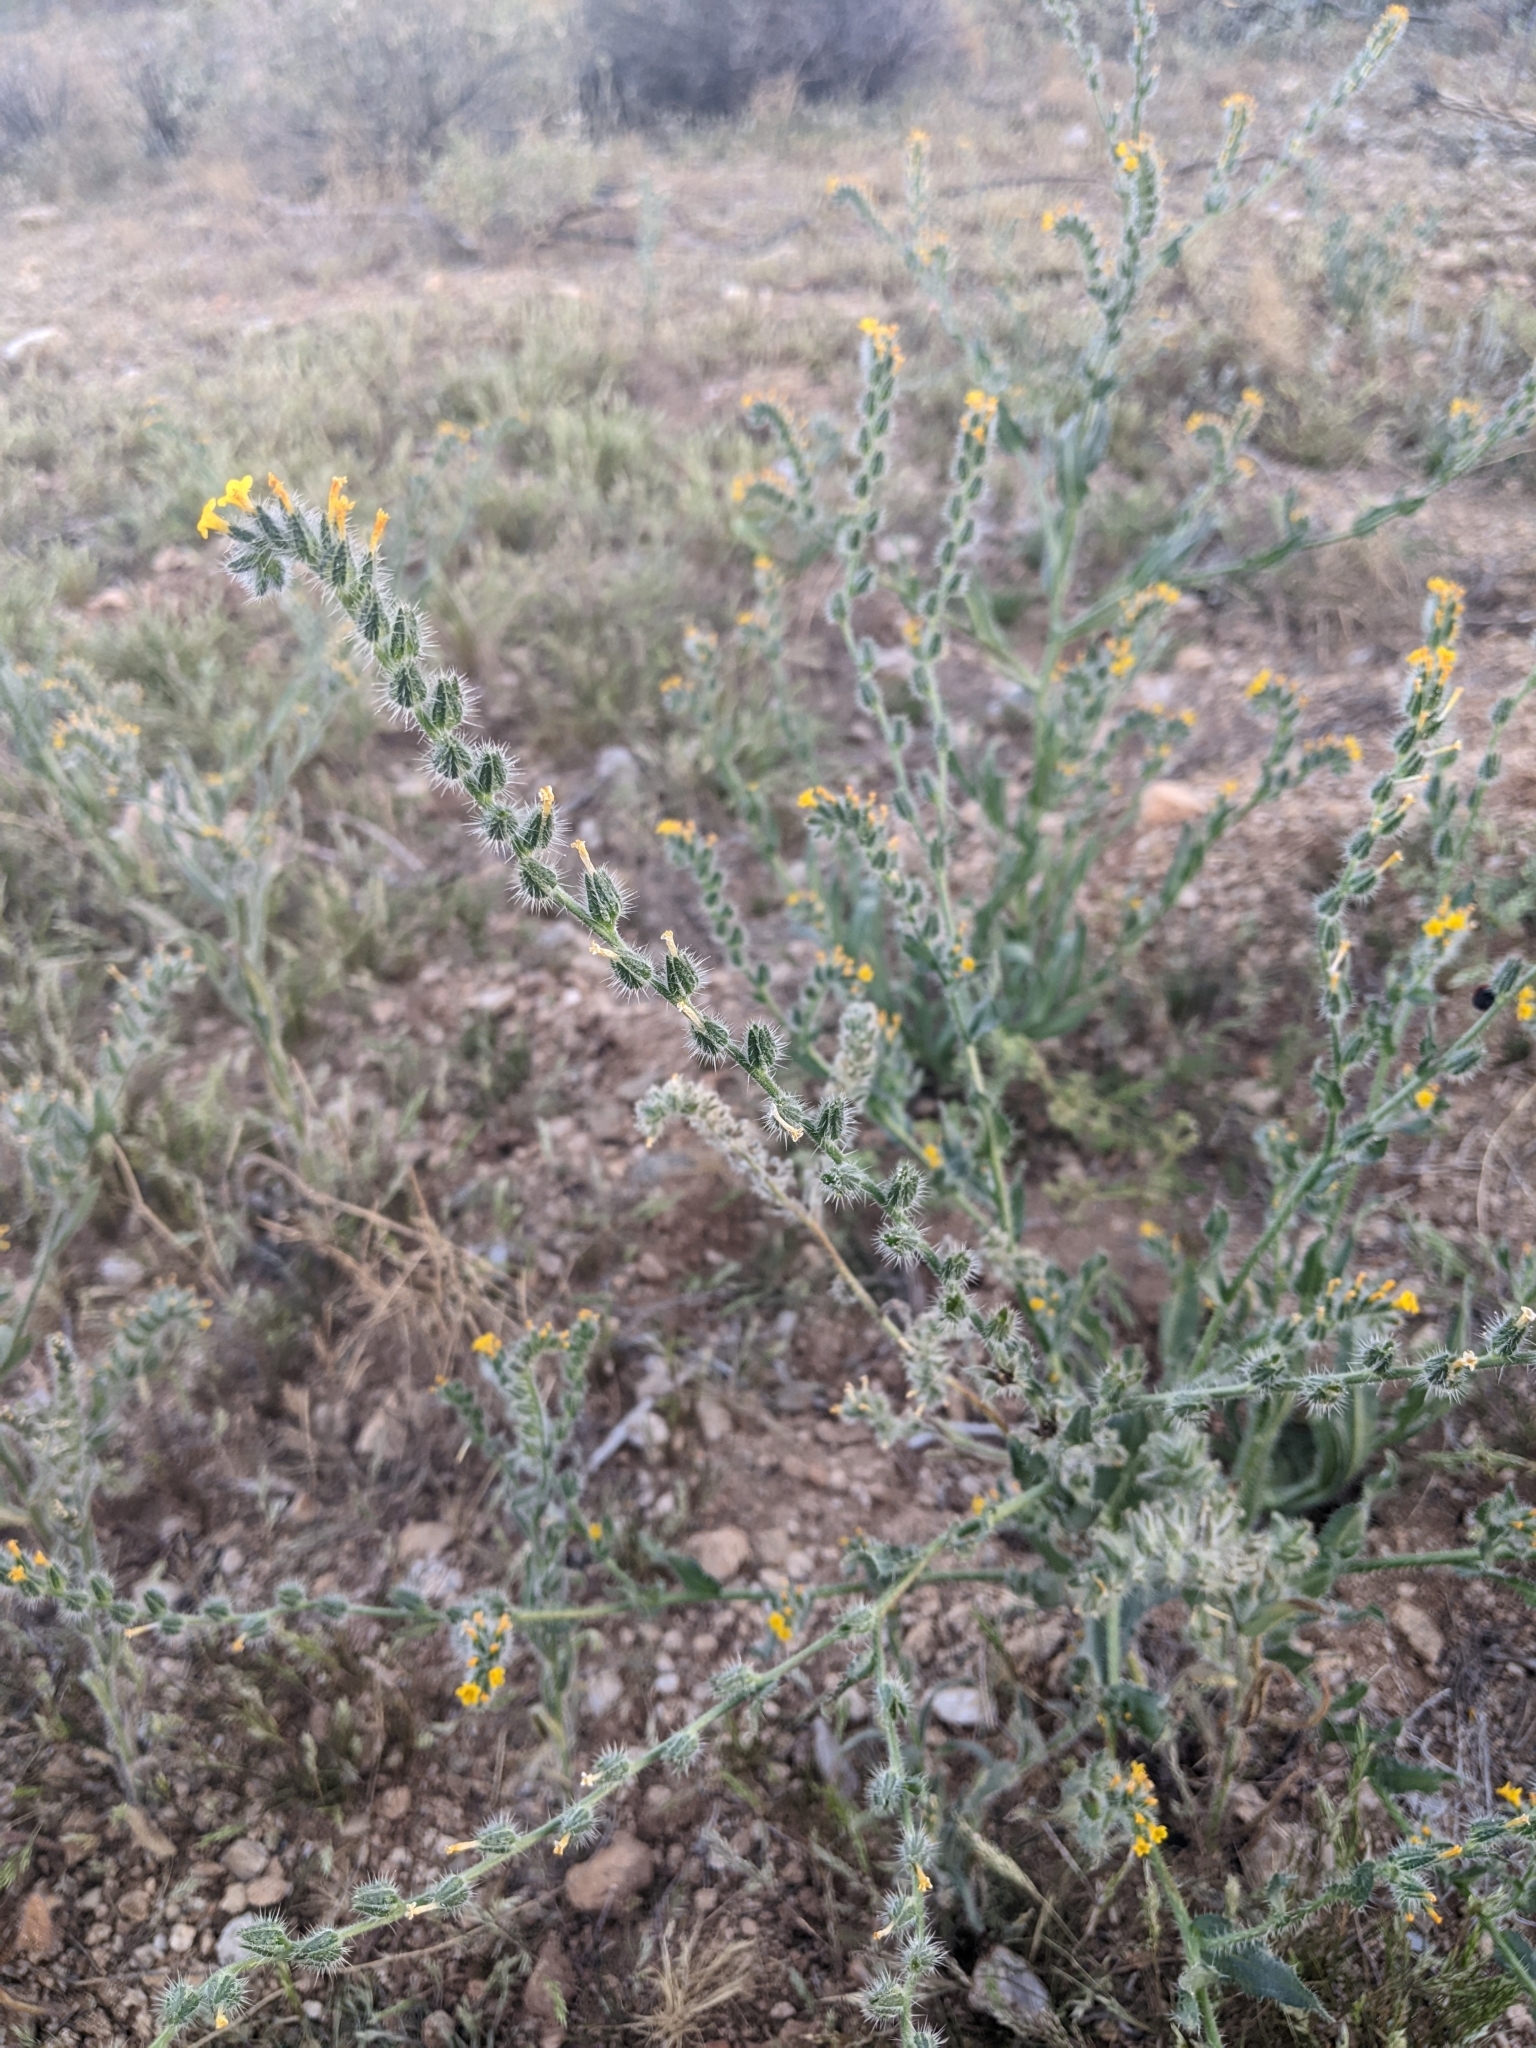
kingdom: Plantae
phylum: Tracheophyta
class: Magnoliopsida
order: Boraginales
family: Boraginaceae
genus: Amsinckia
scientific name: Amsinckia menziesii
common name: Menzies' fiddleneck
